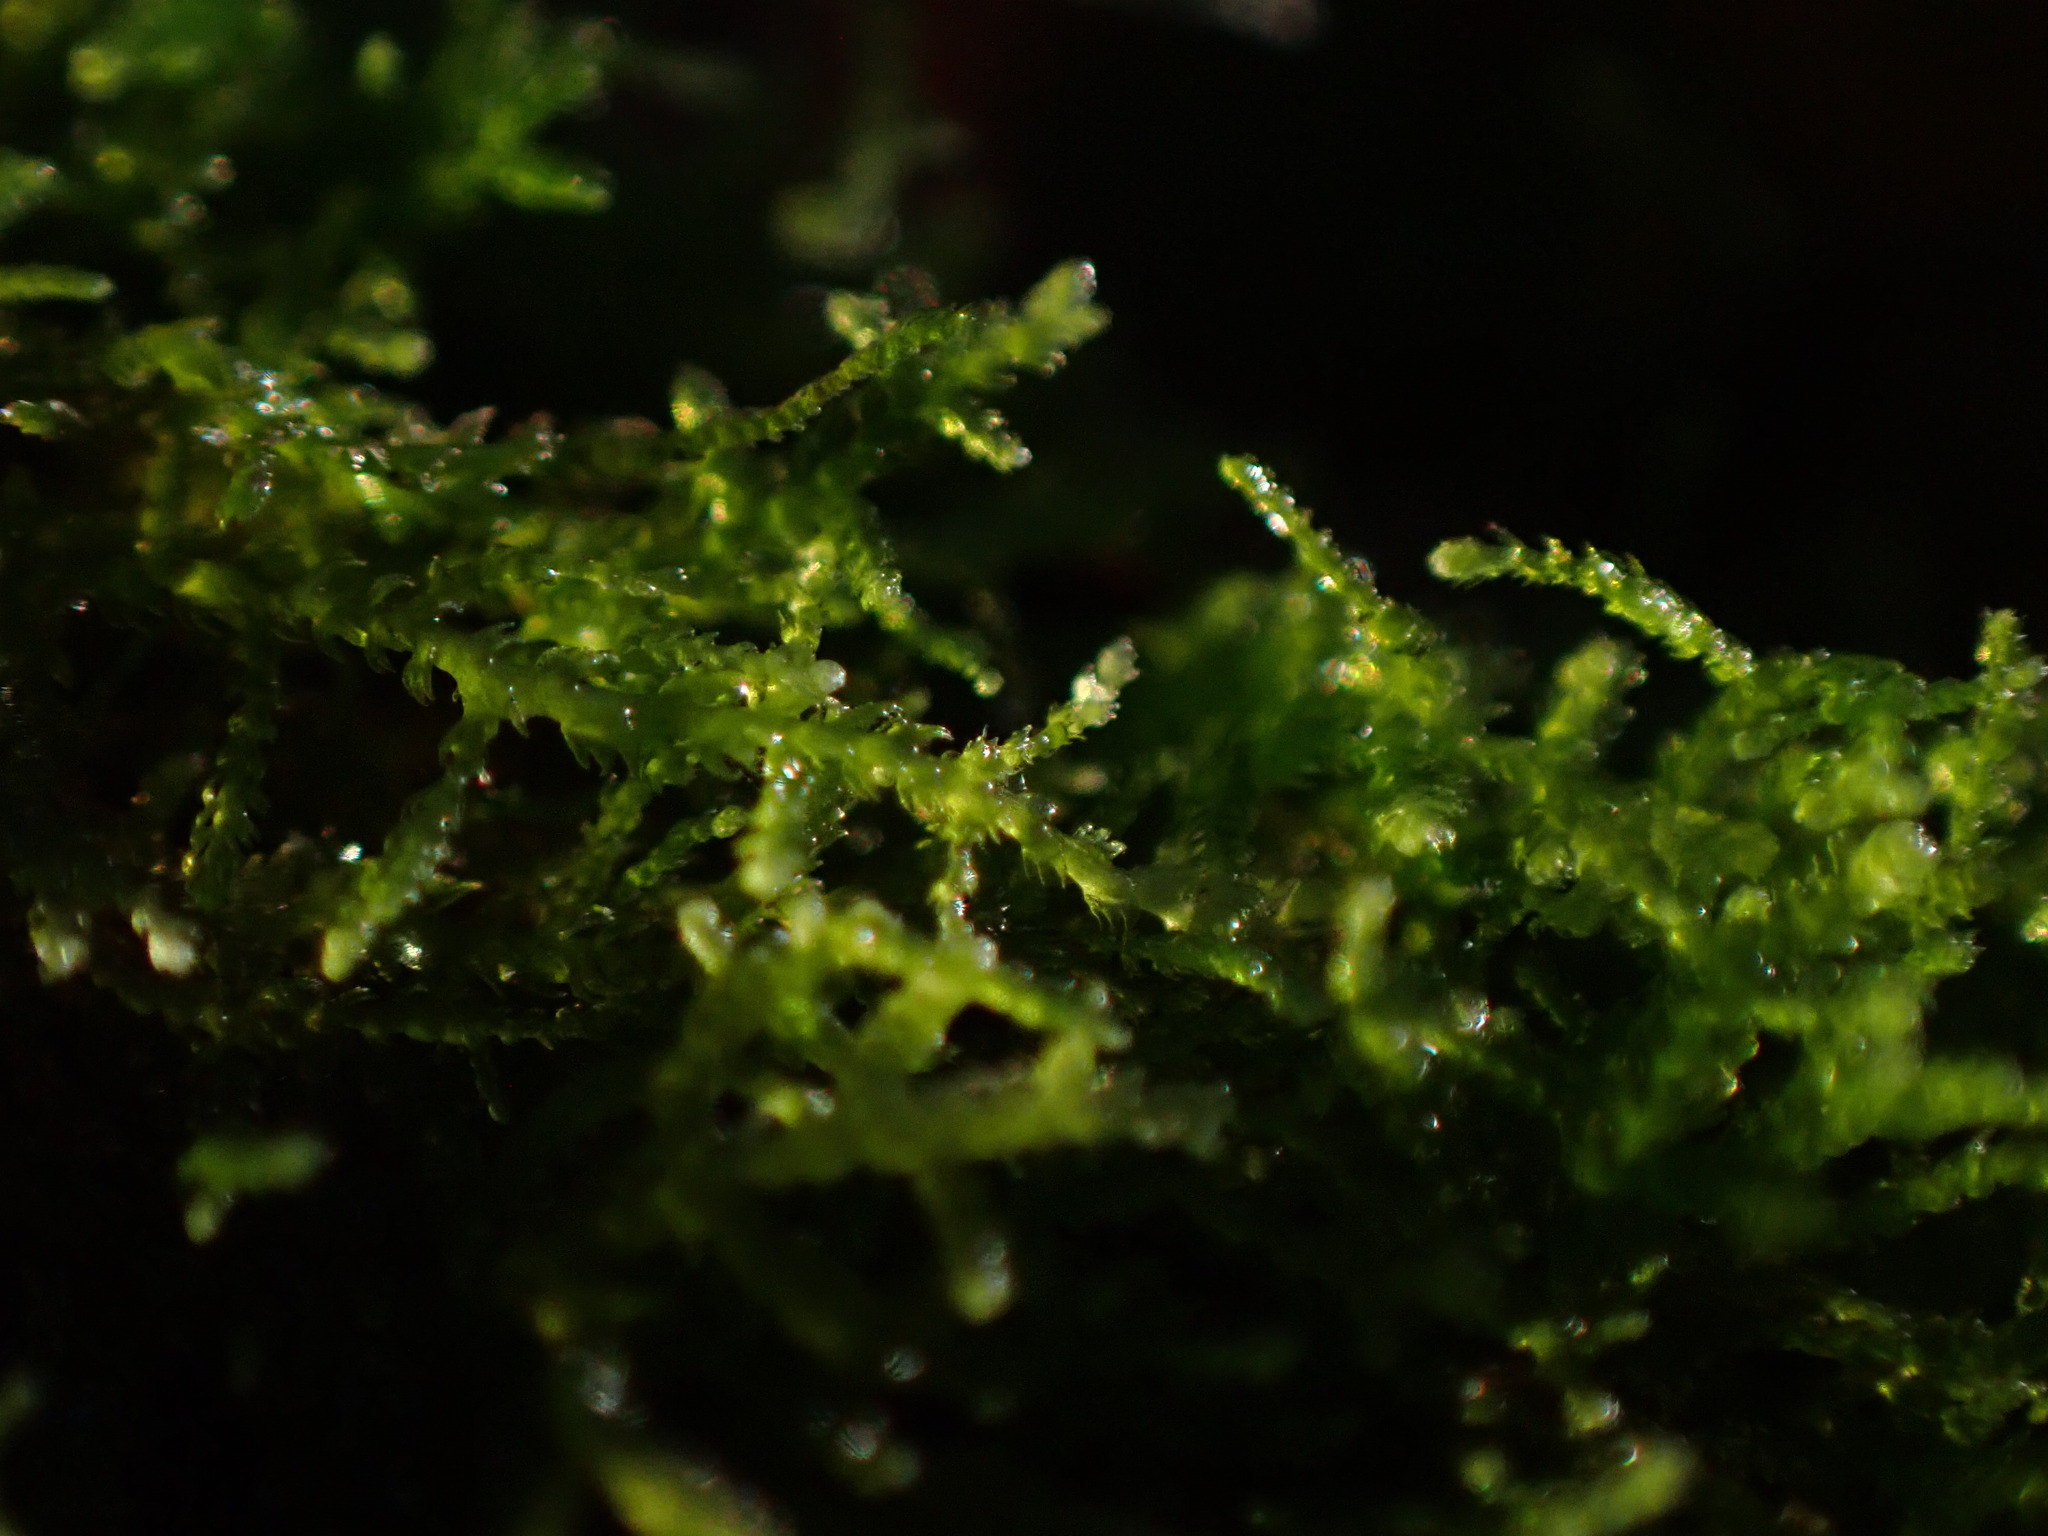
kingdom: Plantae
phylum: Marchantiophyta
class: Jungermanniopsida
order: Jungermanniales
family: Lepidoziaceae
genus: Lepidozia
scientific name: Lepidozia reptans
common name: Creeping fingerwort
